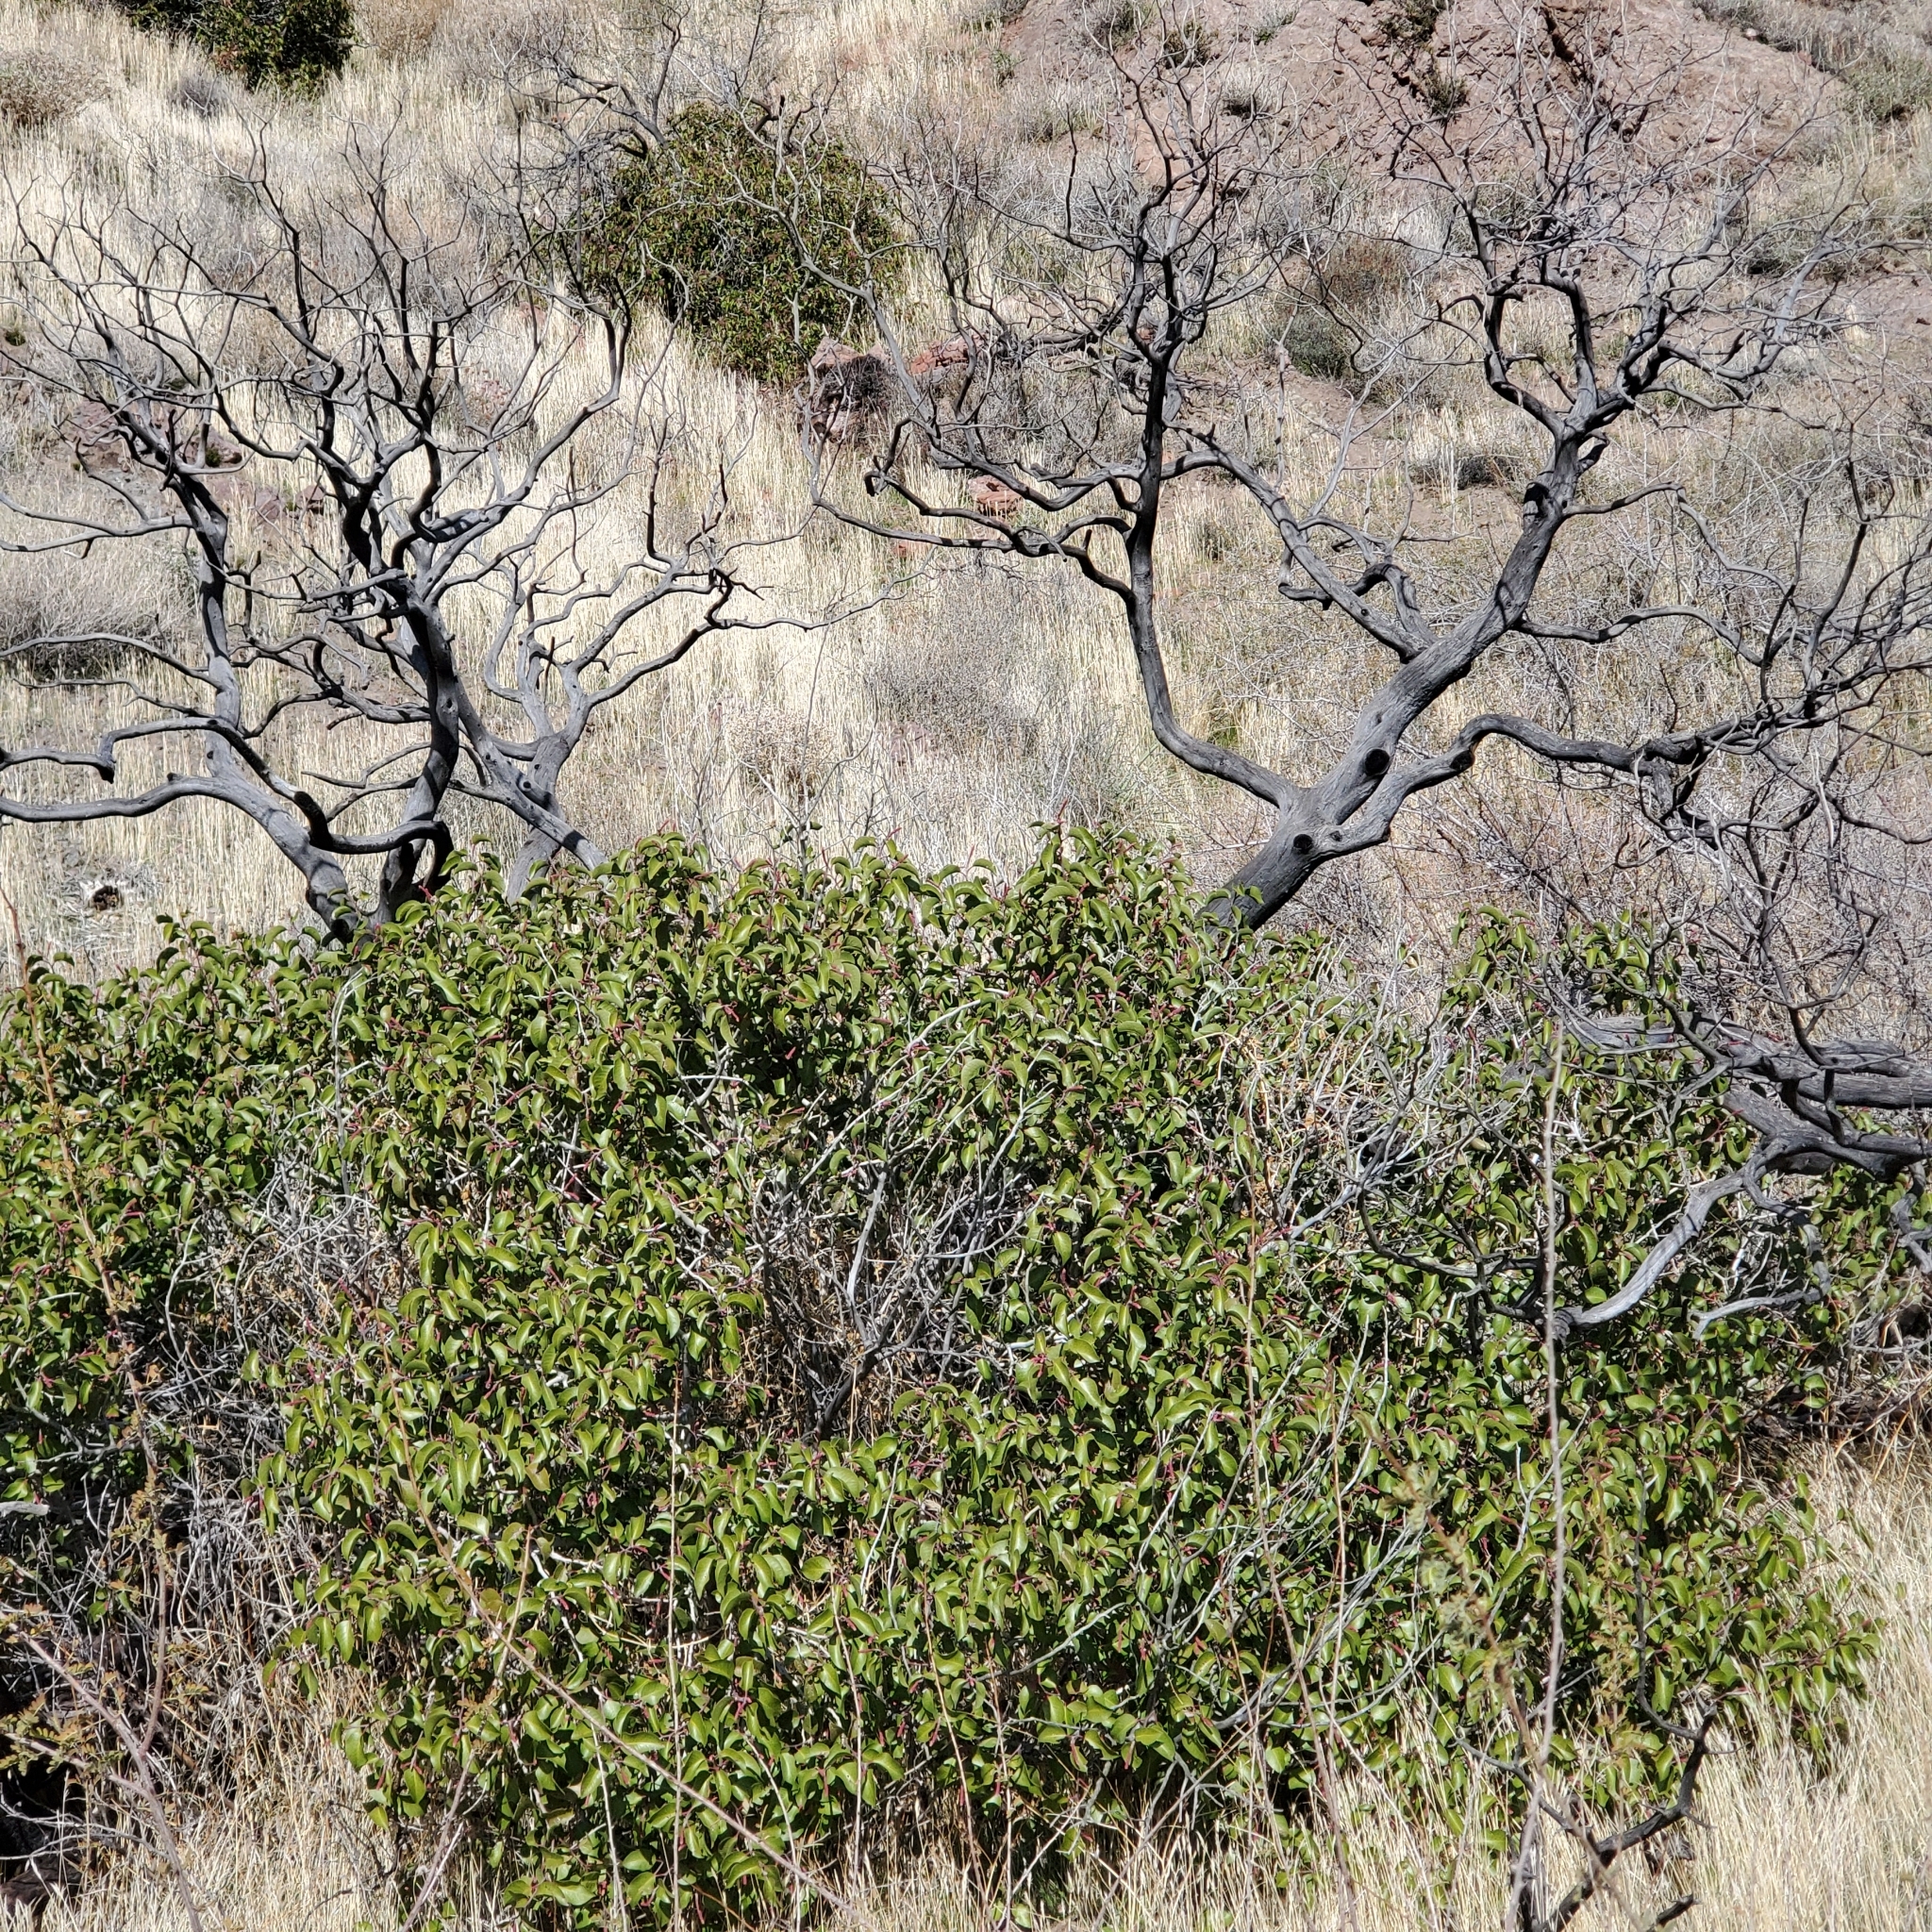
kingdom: Plantae
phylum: Tracheophyta
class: Magnoliopsida
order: Sapindales
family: Anacardiaceae
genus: Rhus
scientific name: Rhus ovata
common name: Sugar sumac
